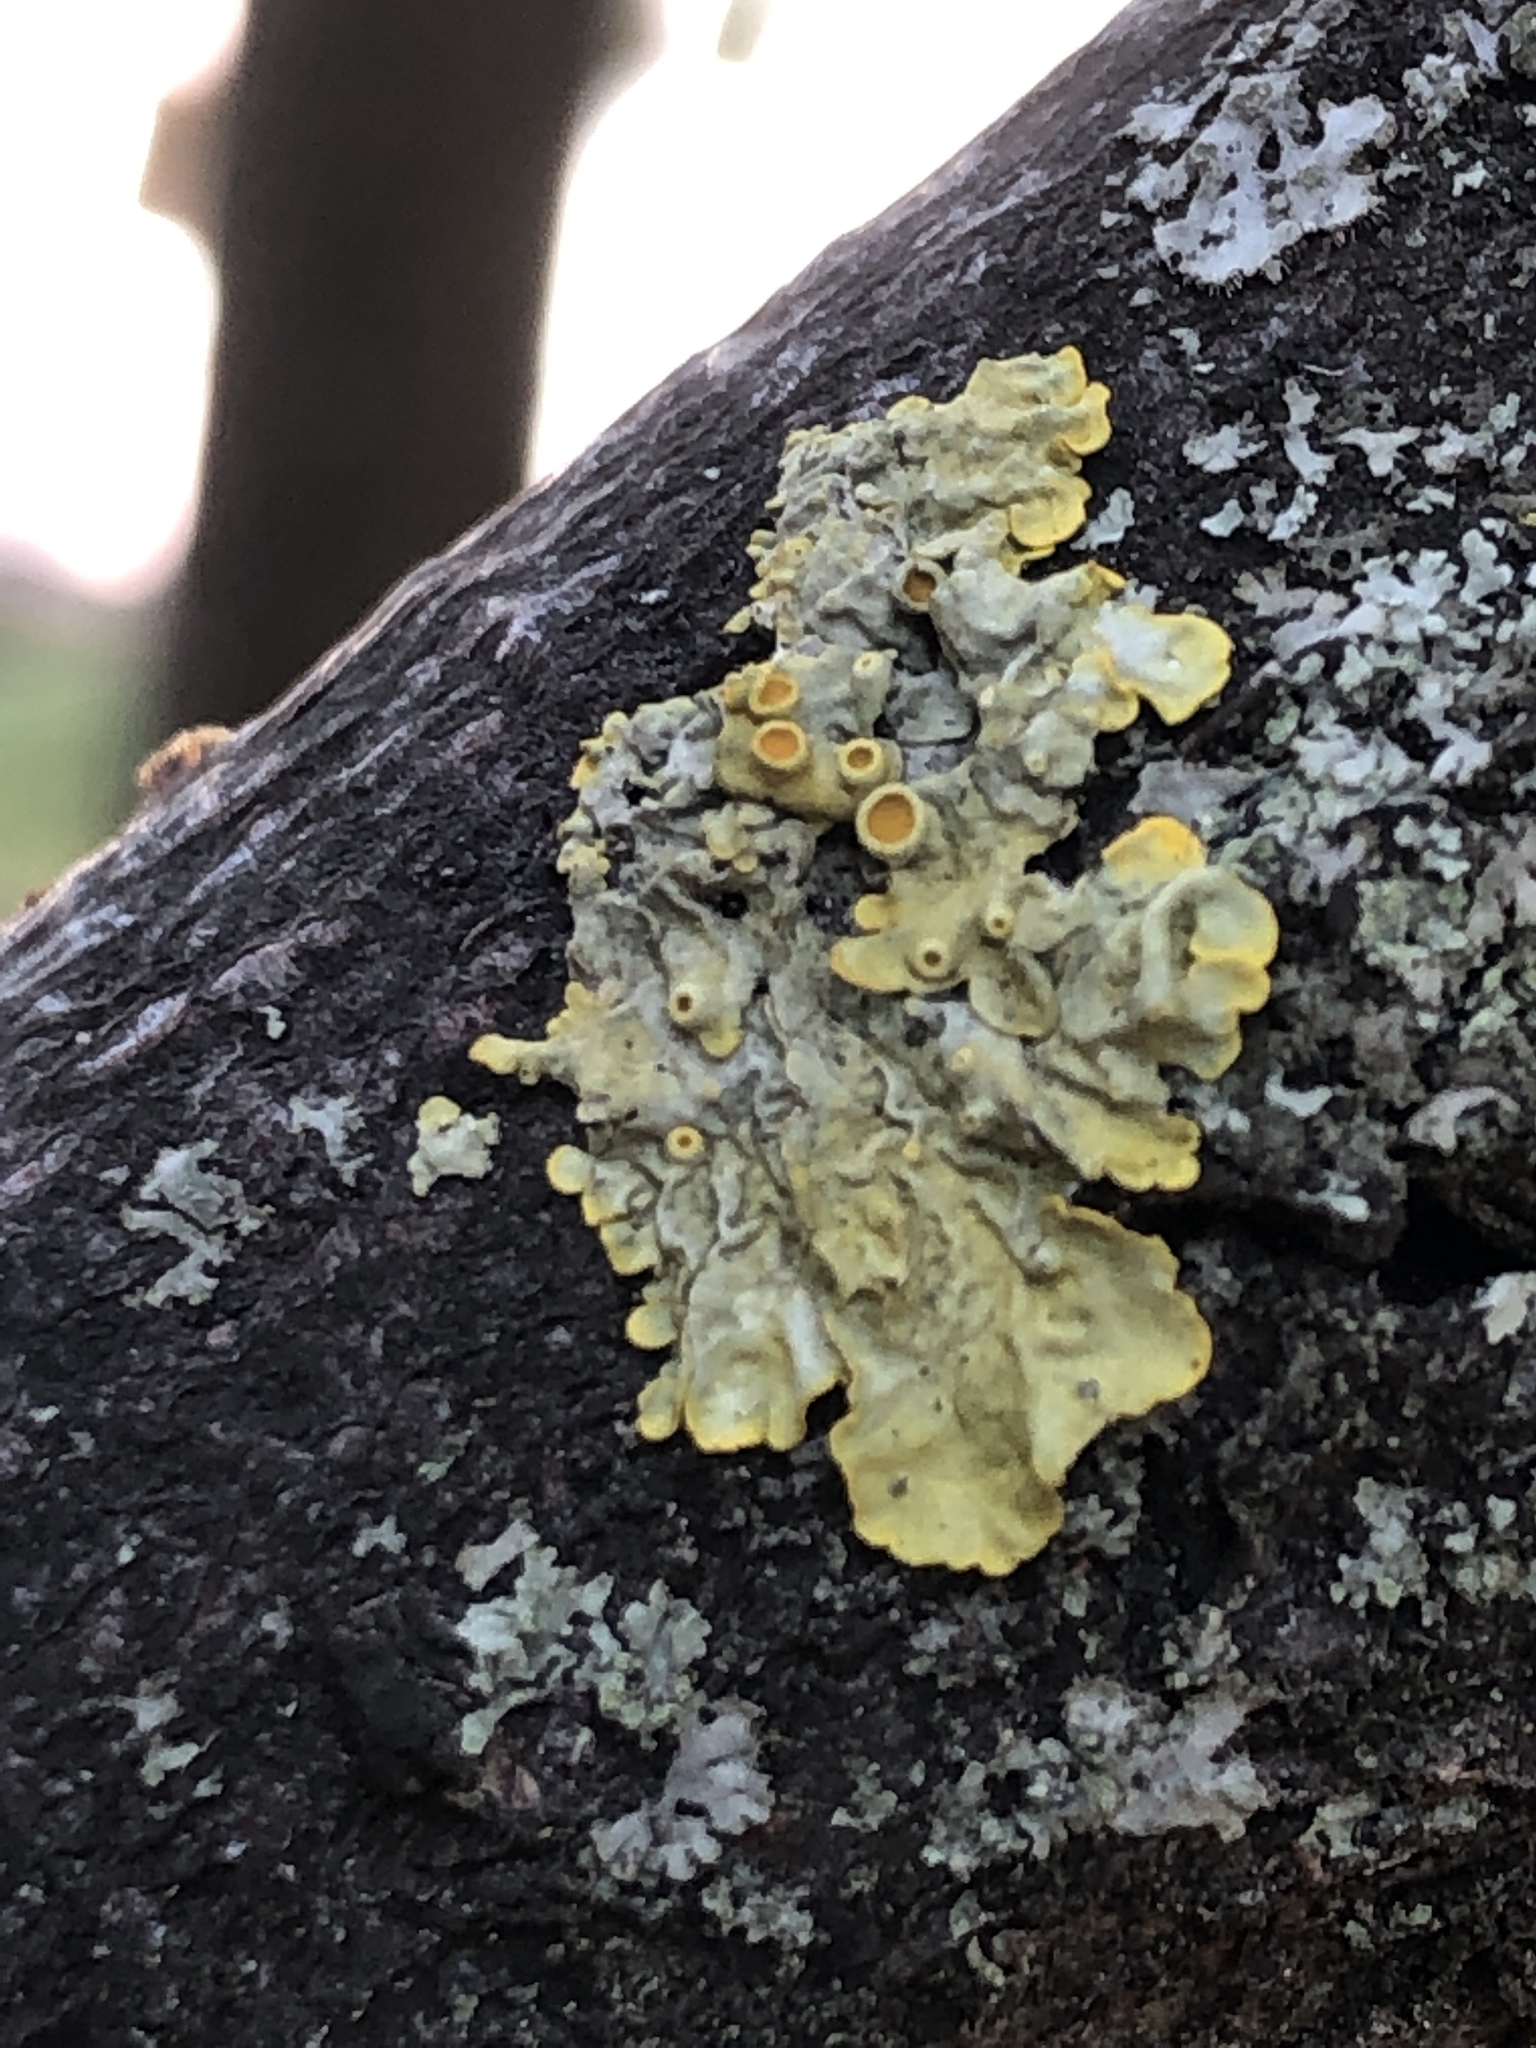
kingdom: Fungi
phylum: Ascomycota
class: Lecanoromycetes
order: Teloschistales
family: Teloschistaceae
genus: Xanthoria
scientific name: Xanthoria parietina
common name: Common orange lichen
